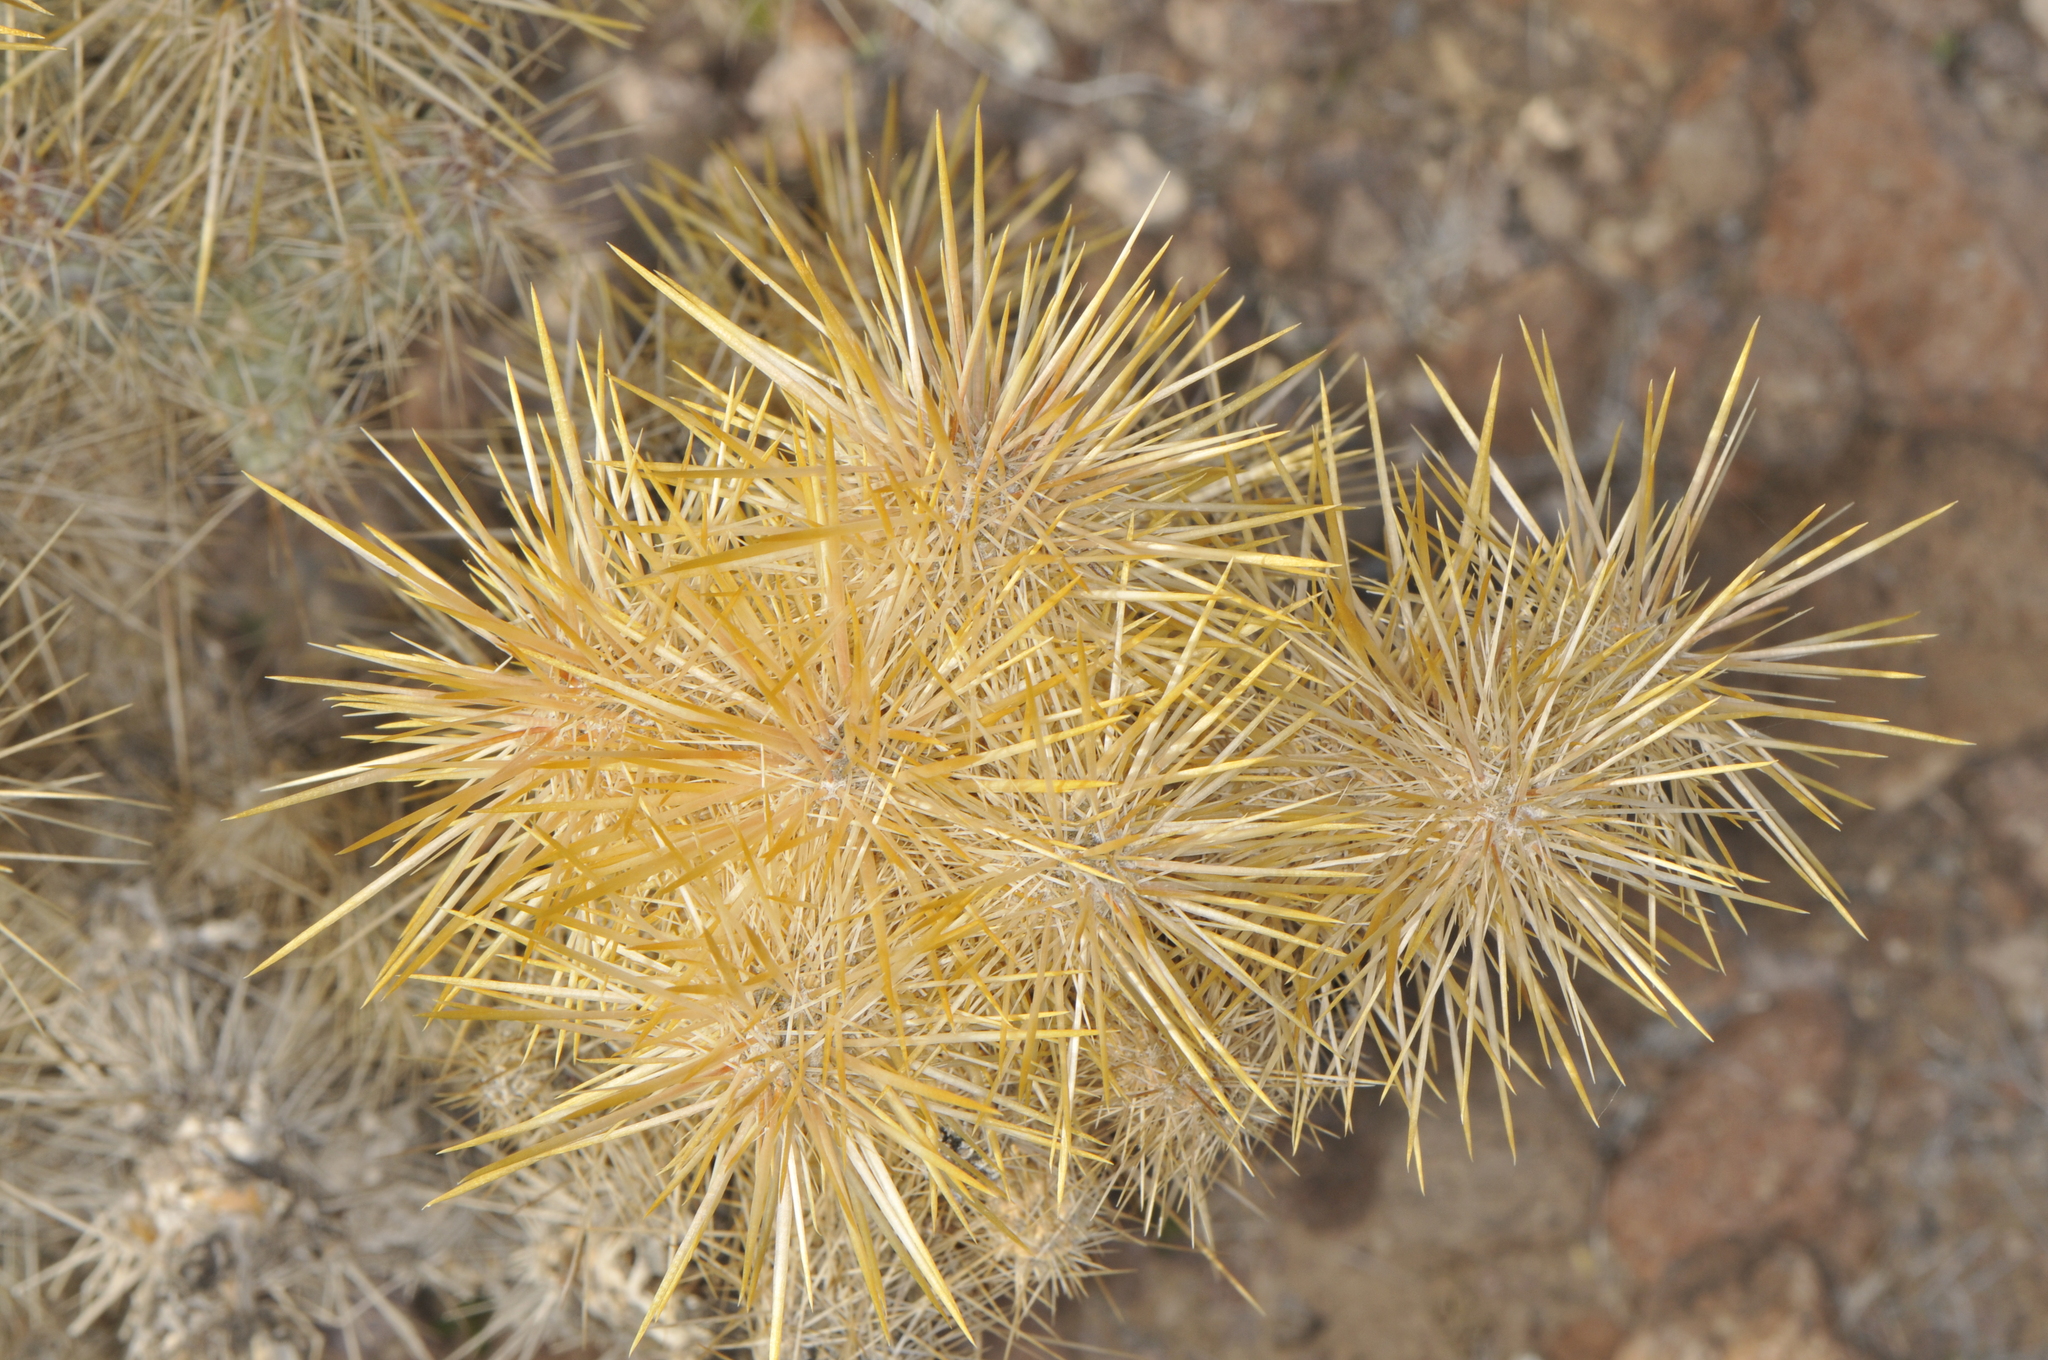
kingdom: Plantae
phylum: Tracheophyta
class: Magnoliopsida
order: Caryophyllales
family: Cactaceae
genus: Cylindropuntia
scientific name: Cylindropuntia echinocarpa
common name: Ground cholla
